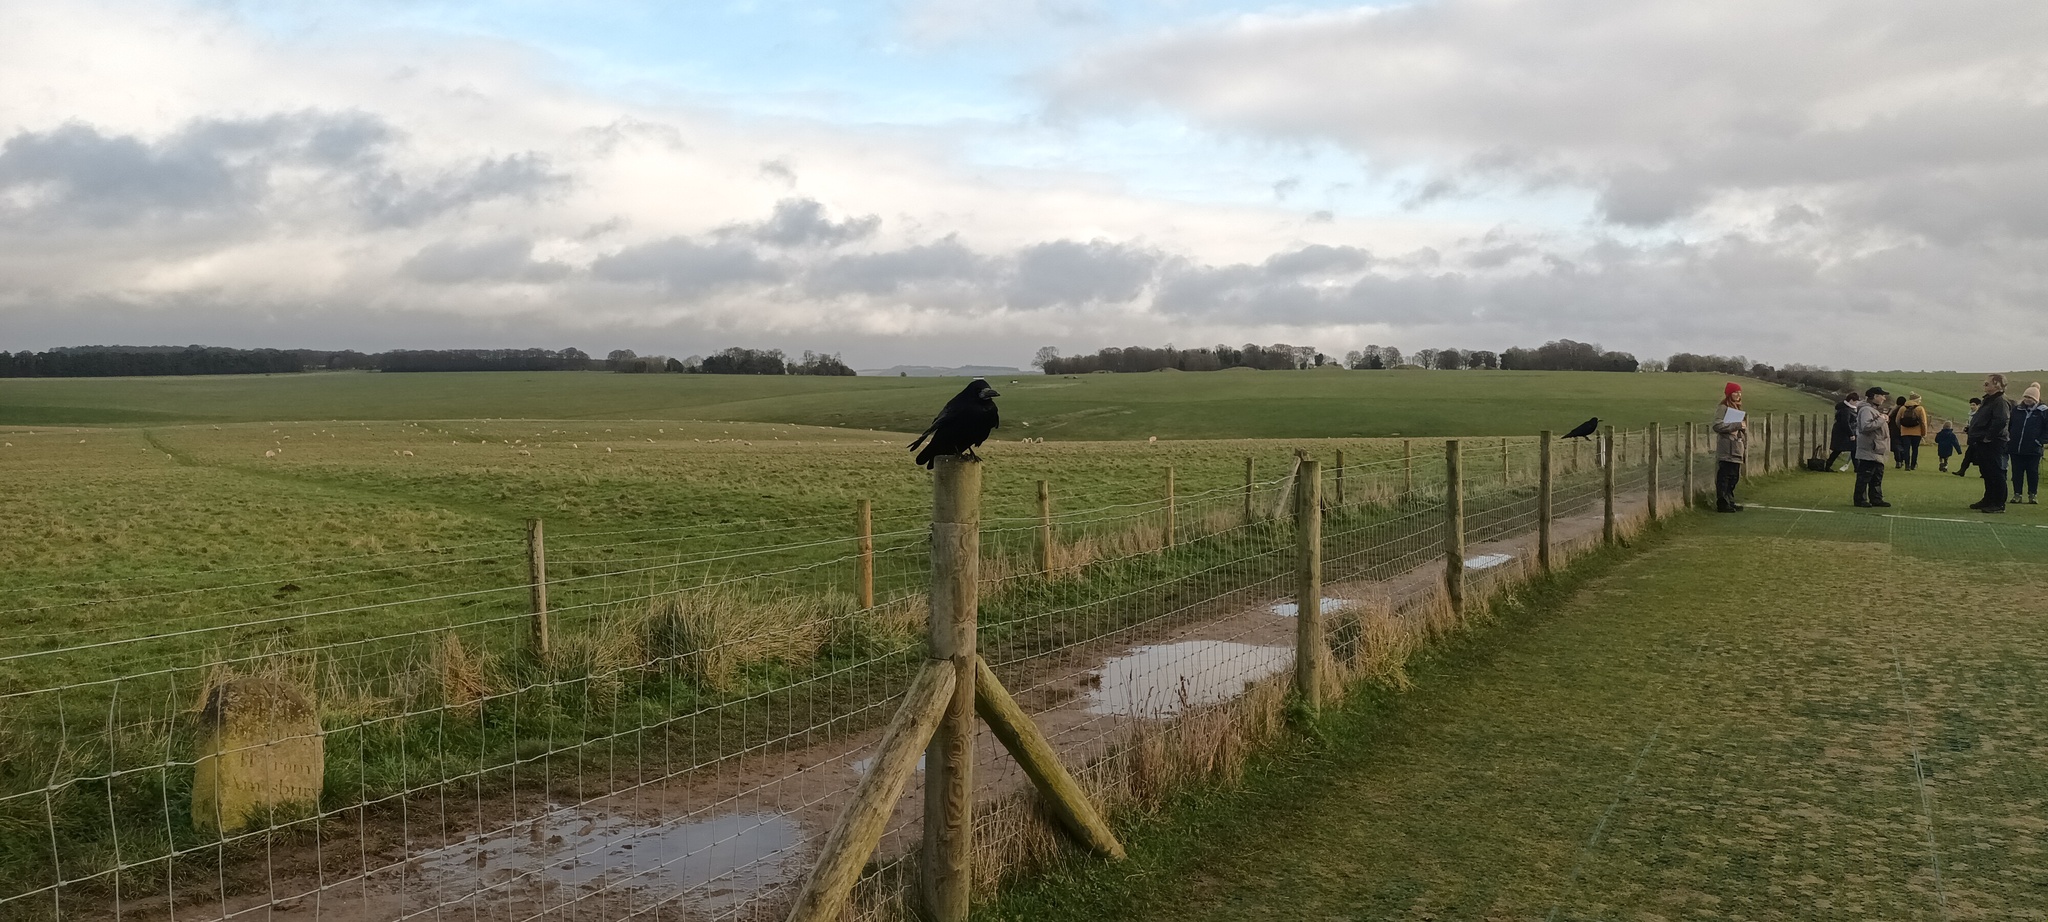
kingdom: Animalia
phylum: Chordata
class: Aves
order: Passeriformes
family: Corvidae
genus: Corvus
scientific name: Corvus frugilegus
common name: Rook
